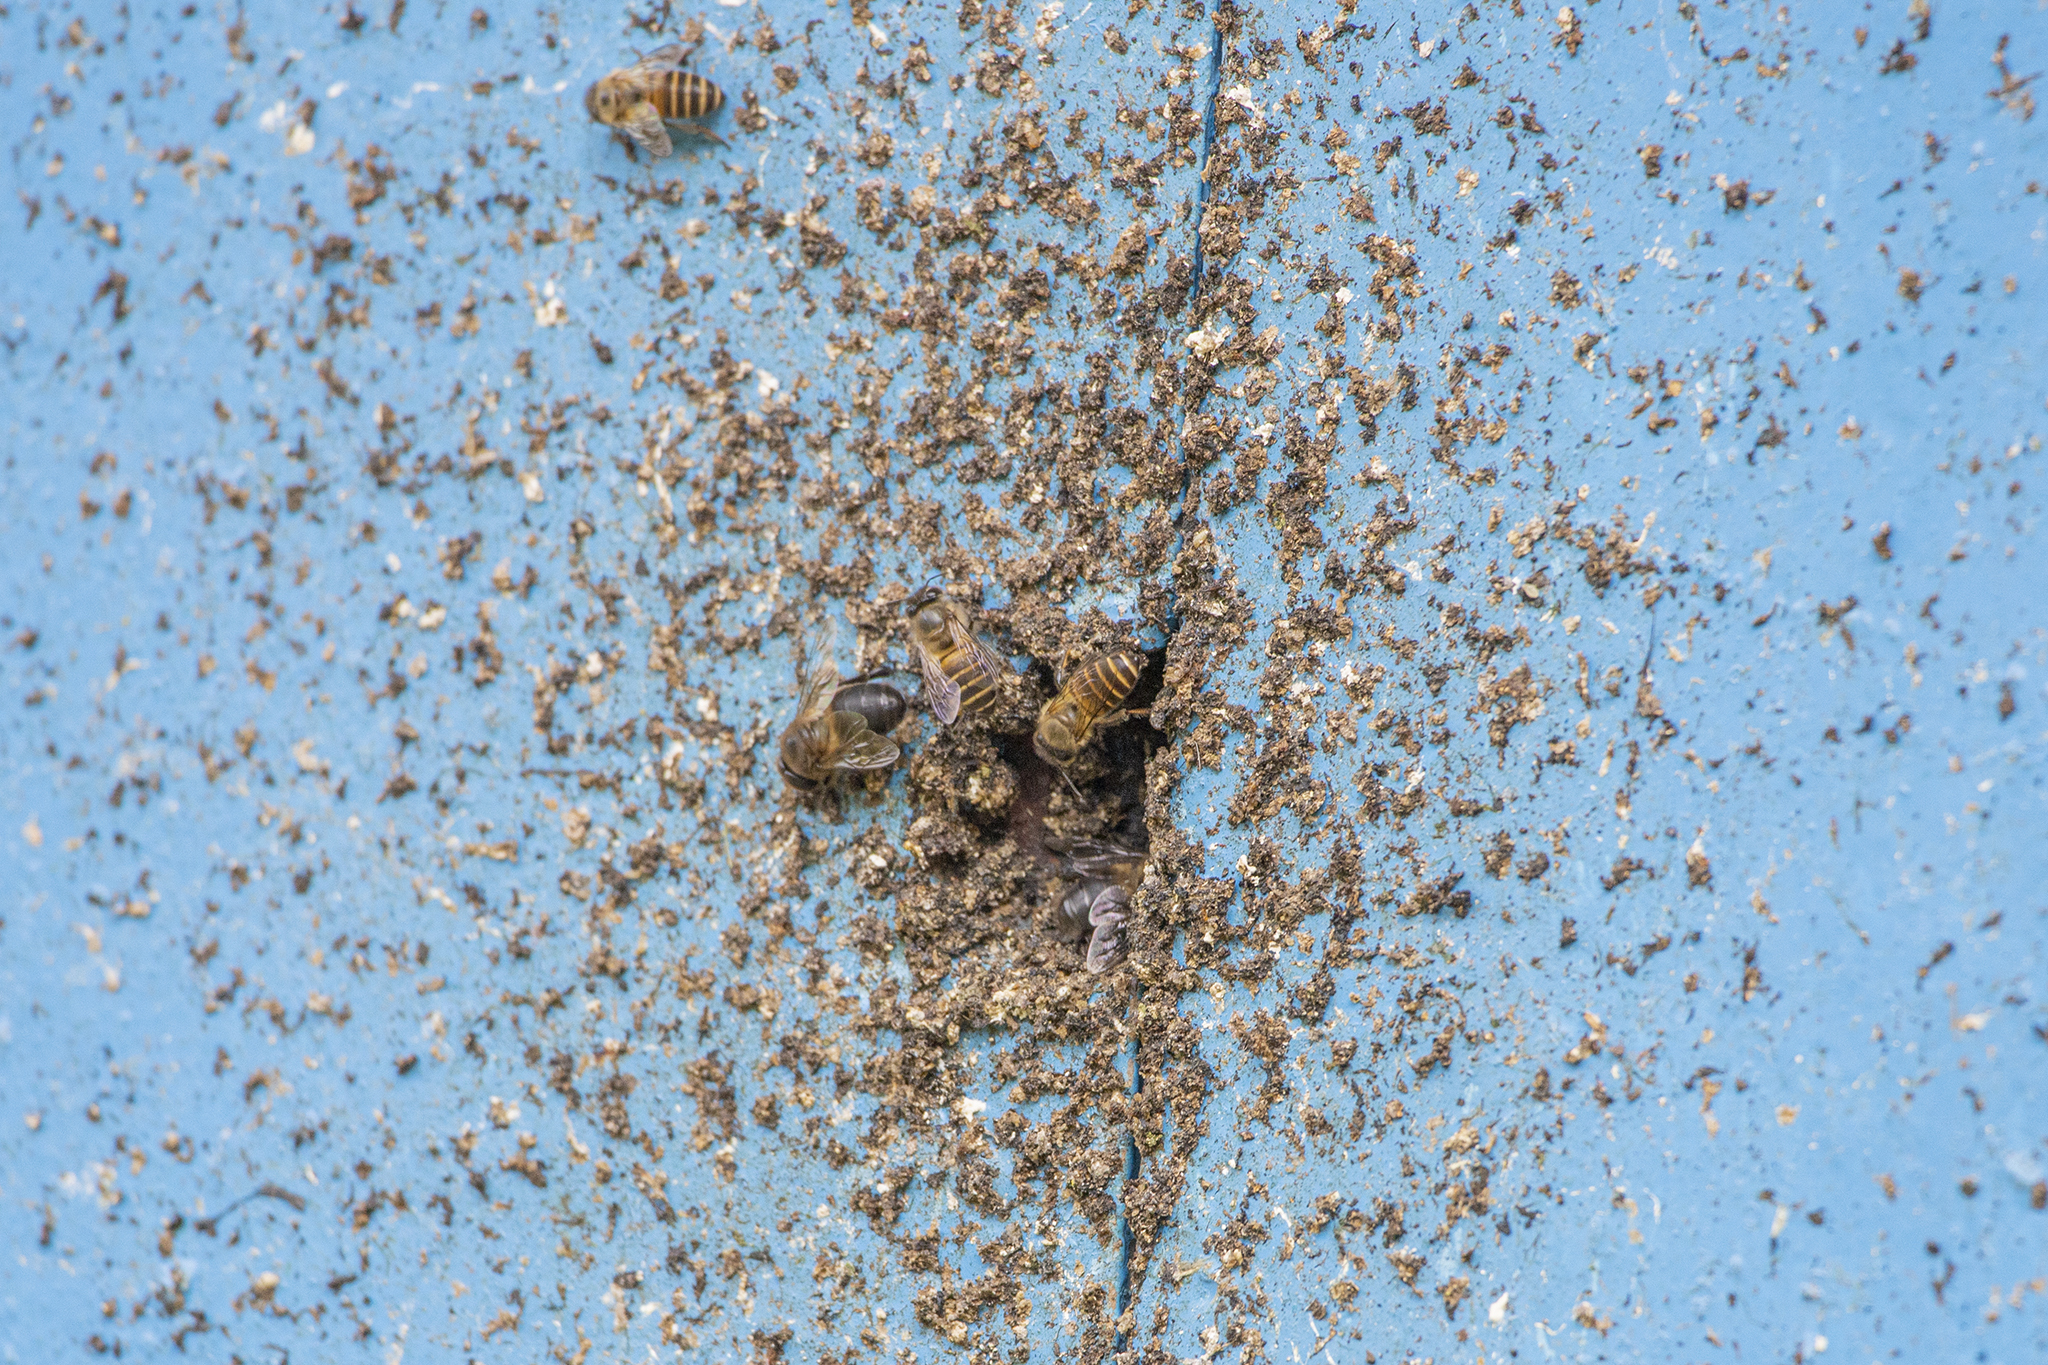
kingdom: Animalia
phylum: Arthropoda
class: Insecta
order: Hymenoptera
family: Apidae
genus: Apis
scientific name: Apis cerana
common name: Honey bee
